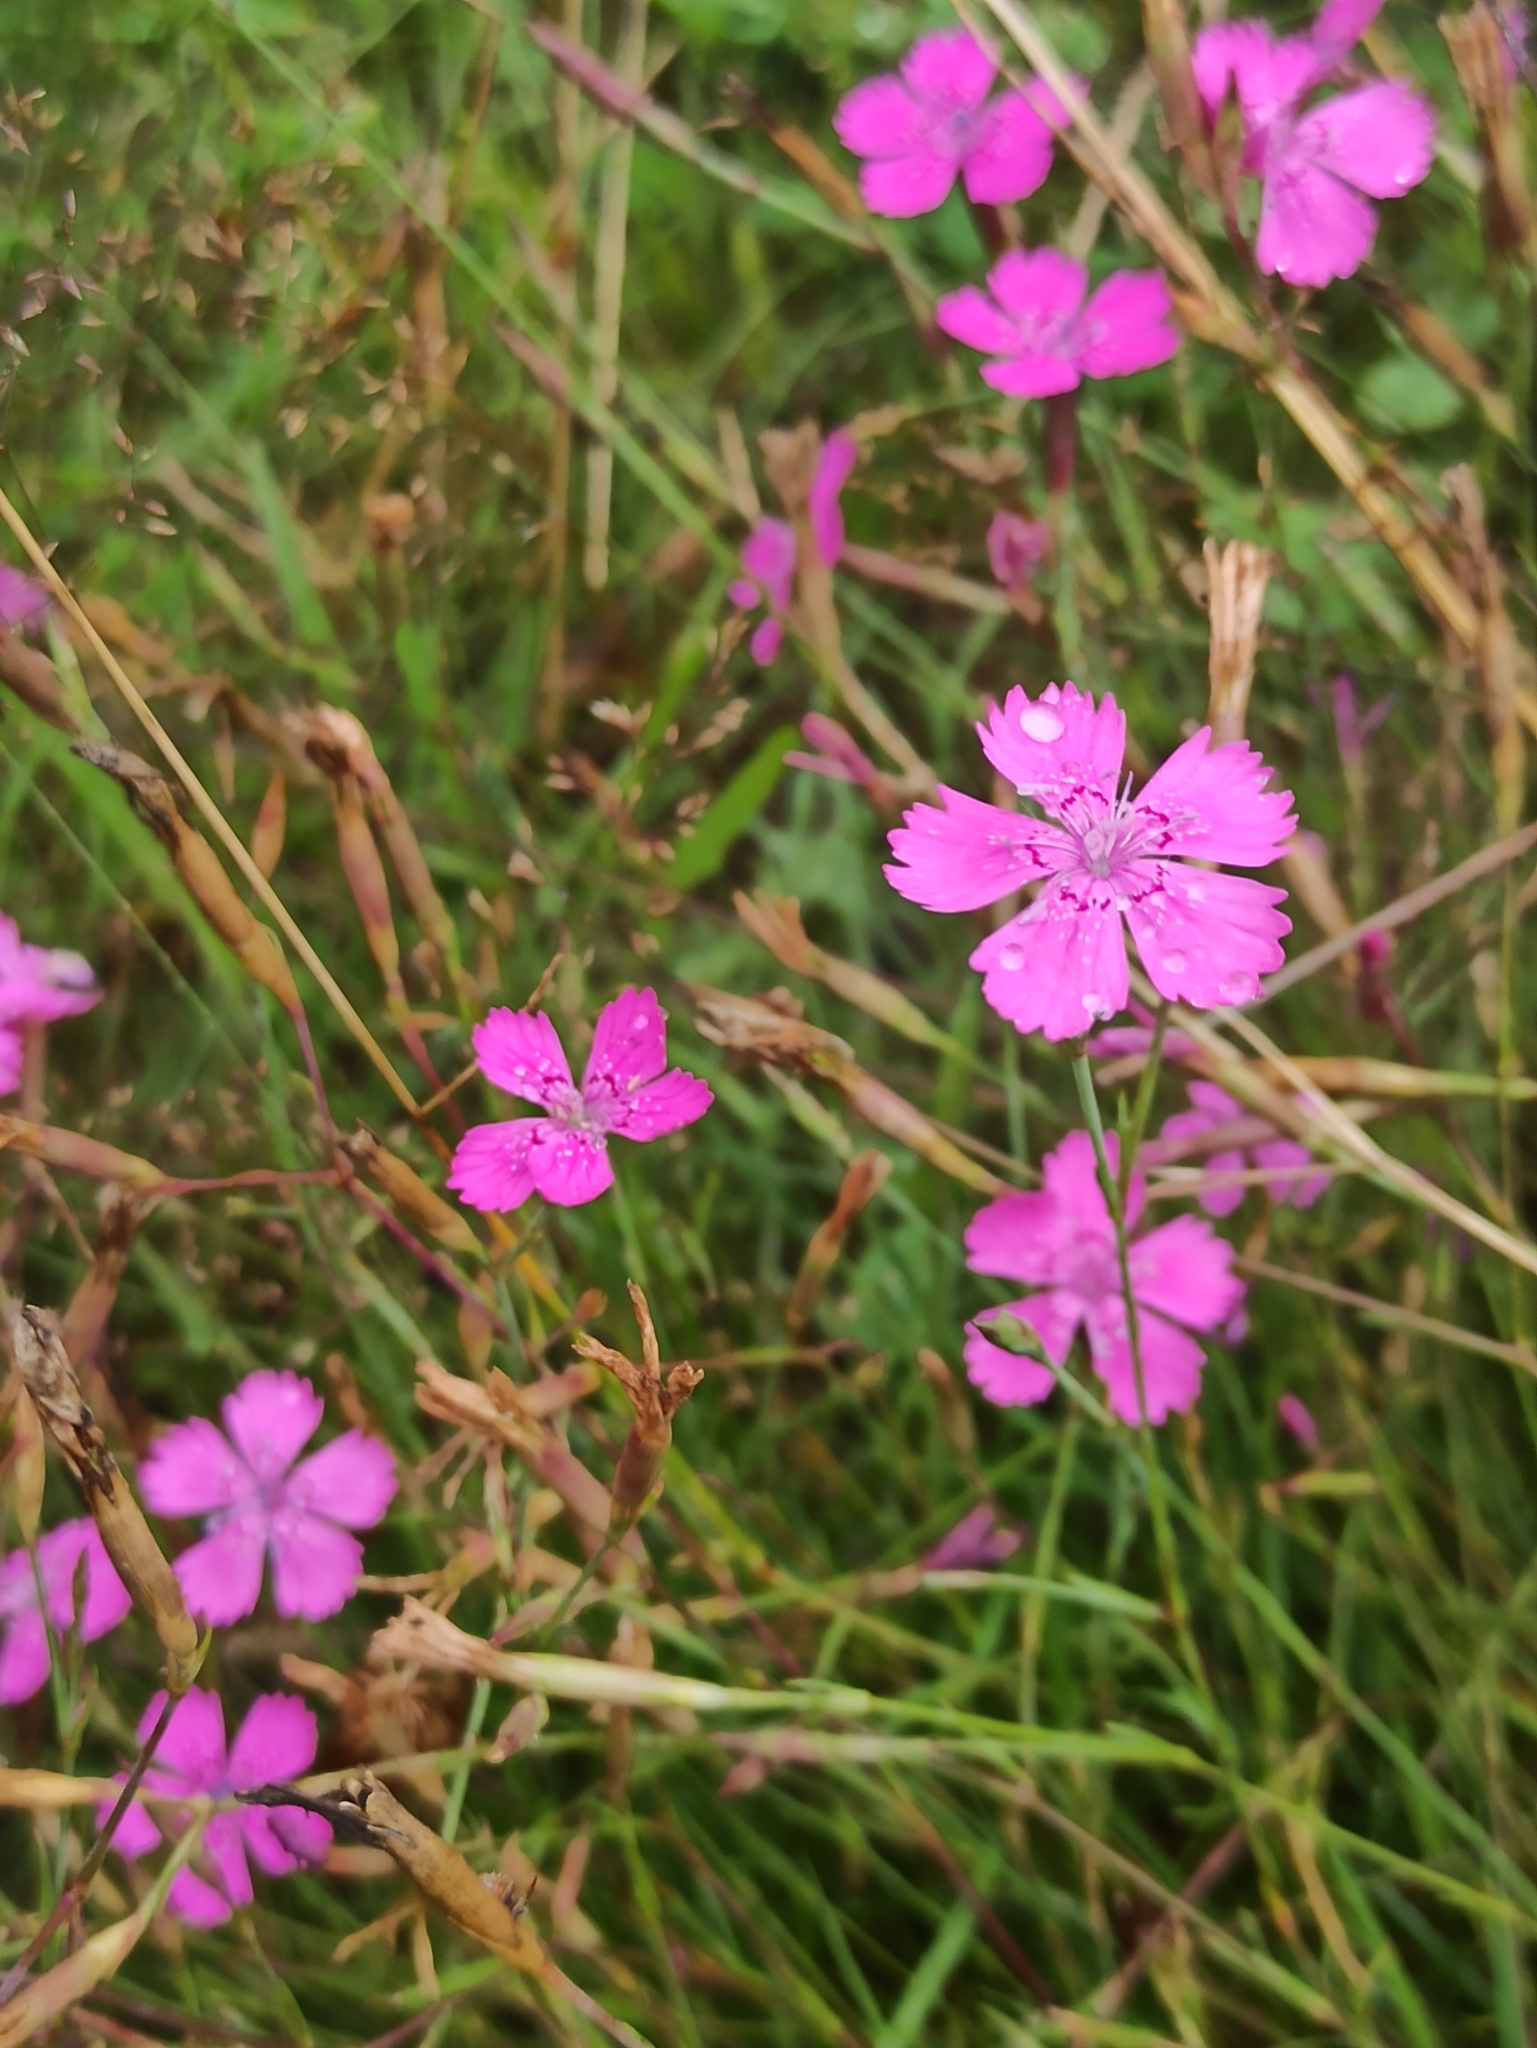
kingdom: Plantae
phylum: Tracheophyta
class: Magnoliopsida
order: Caryophyllales
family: Caryophyllaceae
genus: Dianthus
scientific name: Dianthus deltoides
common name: Maiden pink
